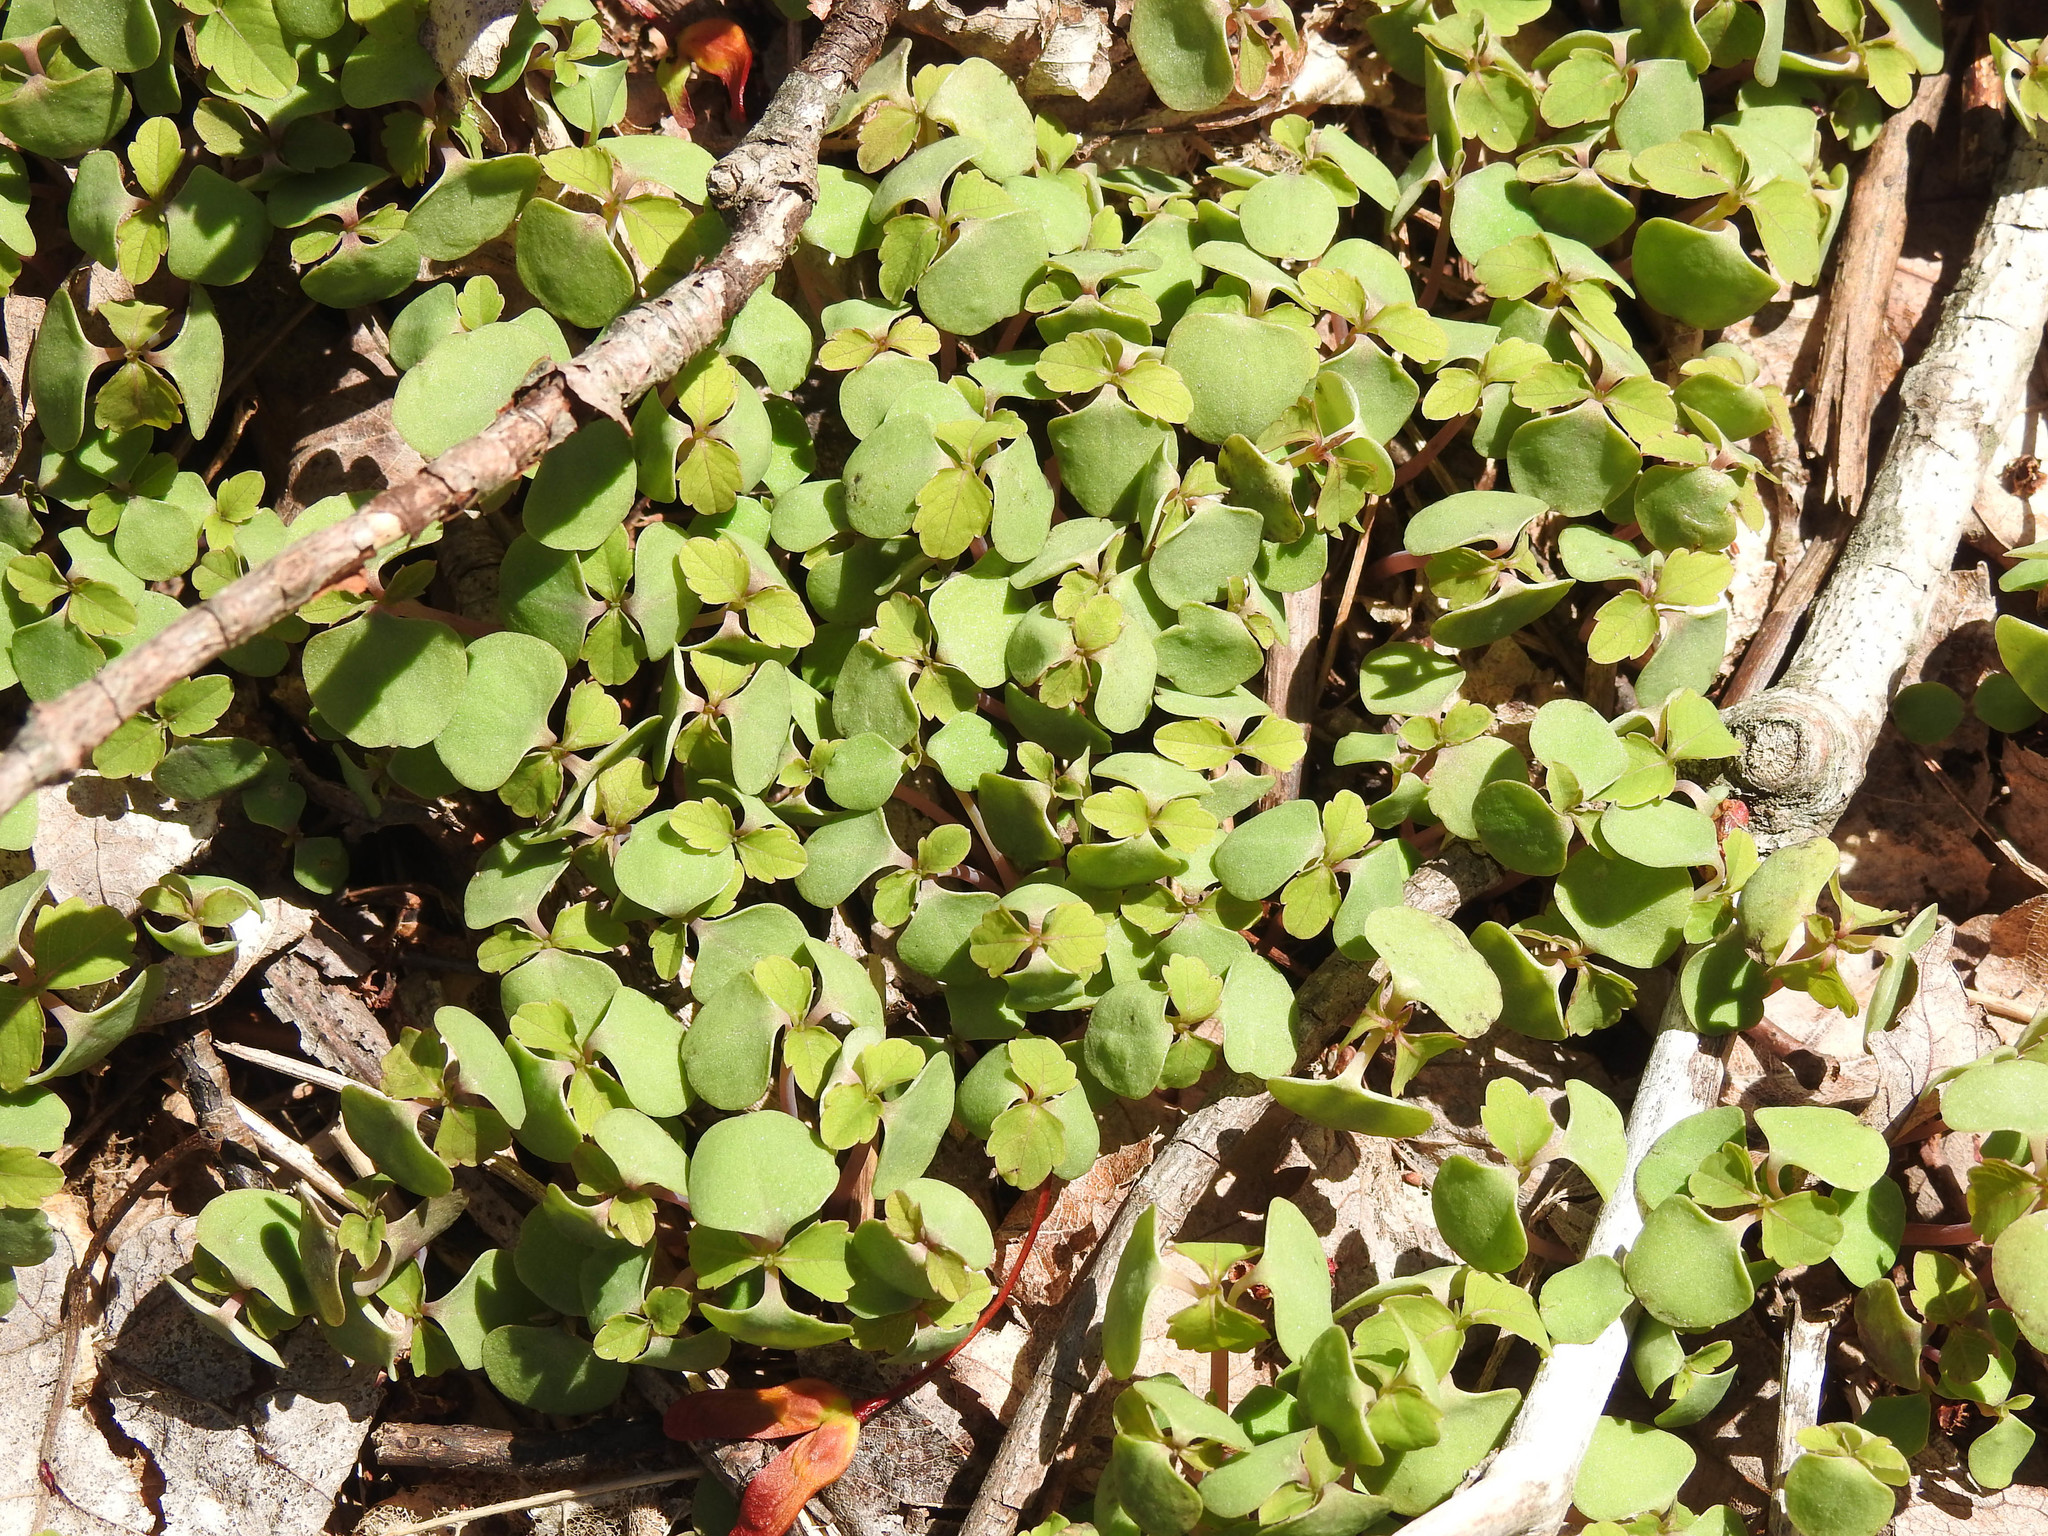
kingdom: Plantae
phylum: Tracheophyta
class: Magnoliopsida
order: Ericales
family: Balsaminaceae
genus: Impatiens
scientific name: Impatiens capensis
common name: Orange balsam
